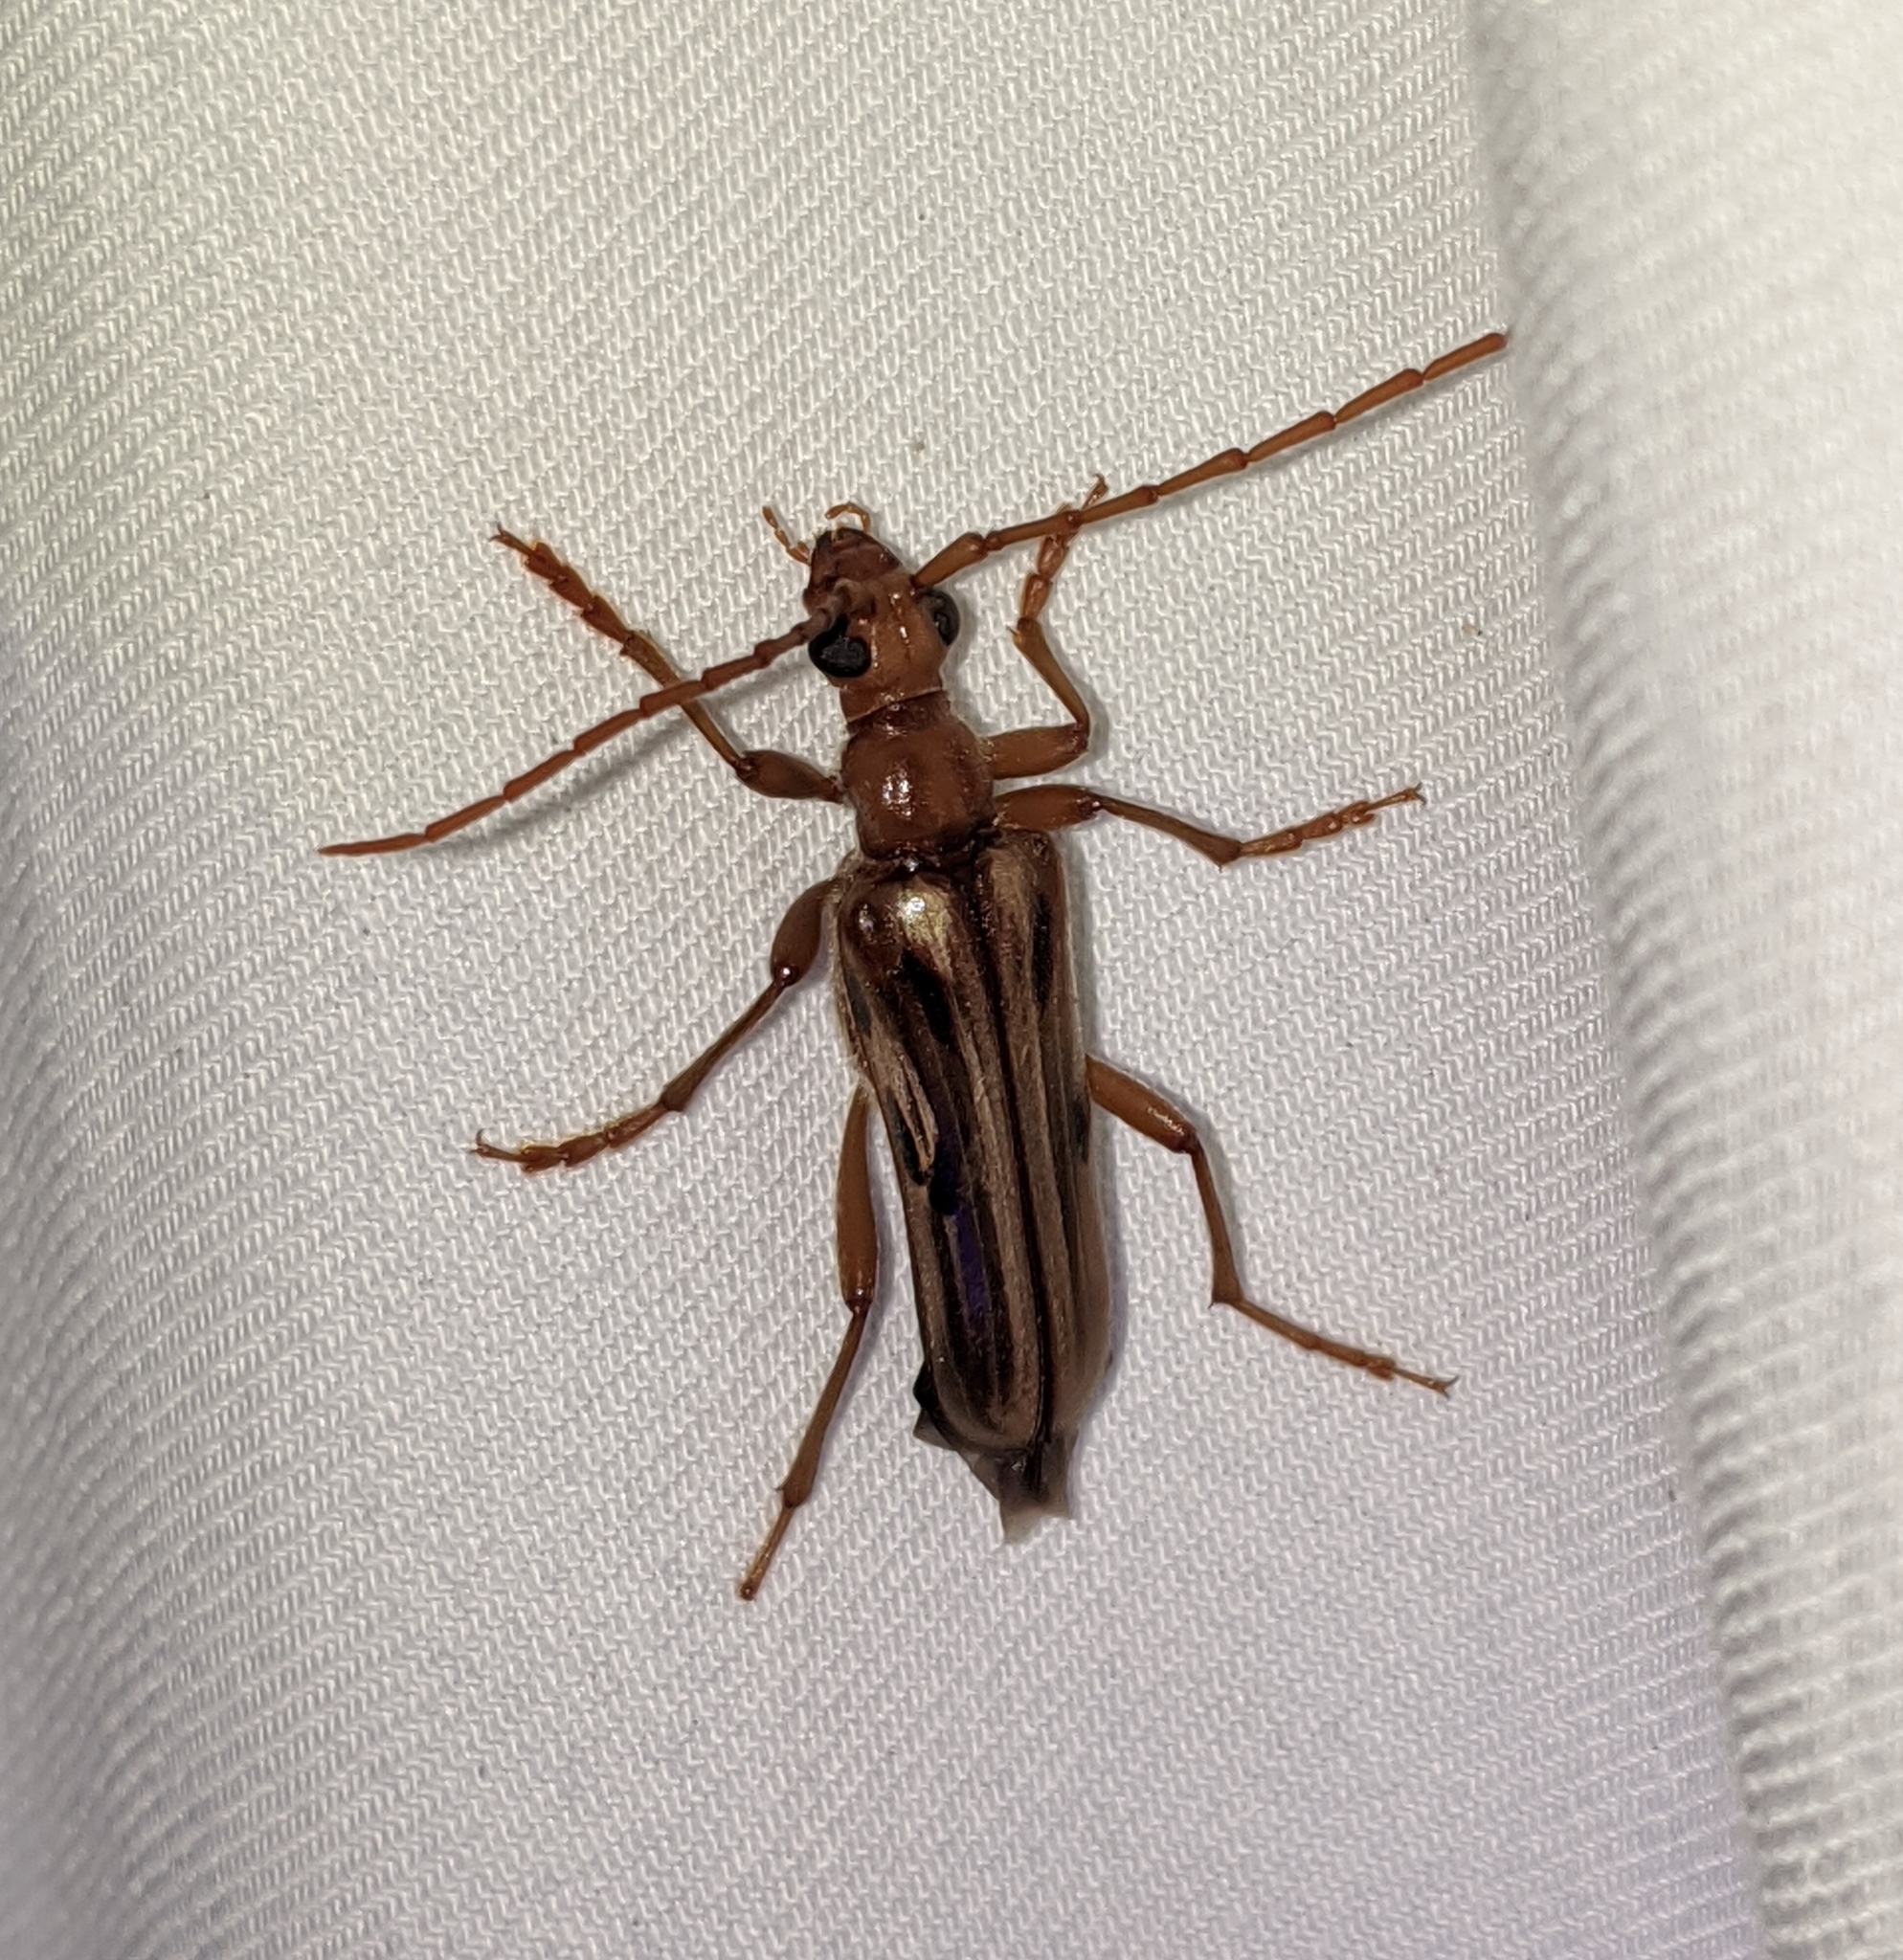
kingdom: Animalia
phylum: Arthropoda
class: Insecta
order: Coleoptera
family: Cerambycidae
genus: Ortholeptura
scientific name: Ortholeptura valida
